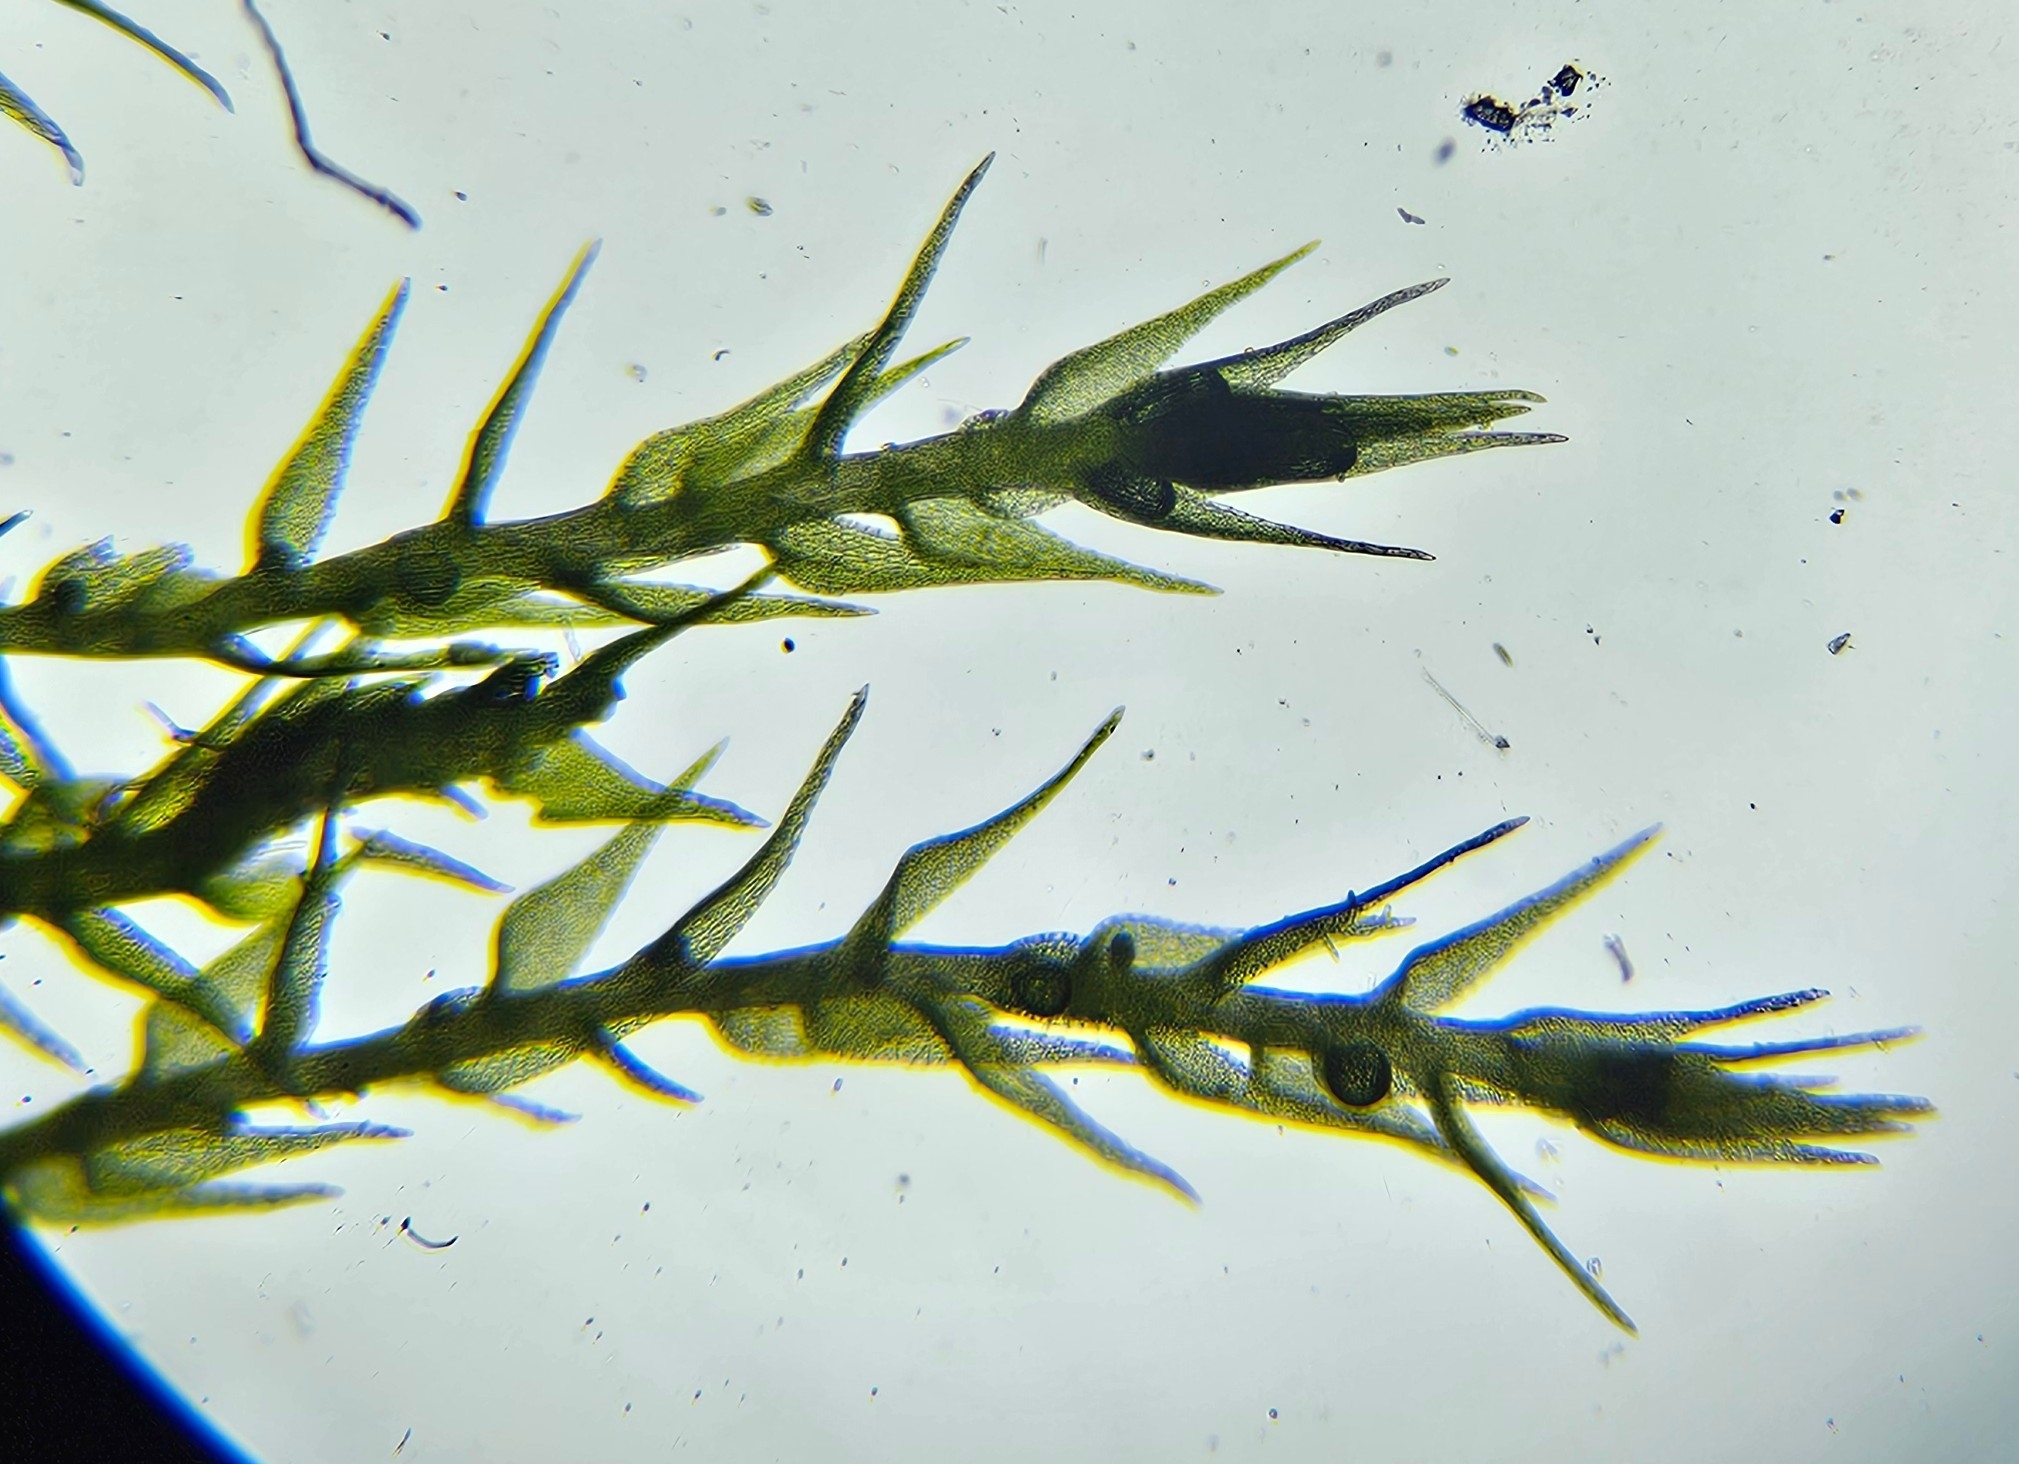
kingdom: Plantae
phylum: Bryophyta
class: Bryopsida
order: Hypnales
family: Amblystegiaceae
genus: Amblystegium
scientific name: Amblystegium serpens
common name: Jurkatzka's feather moss
